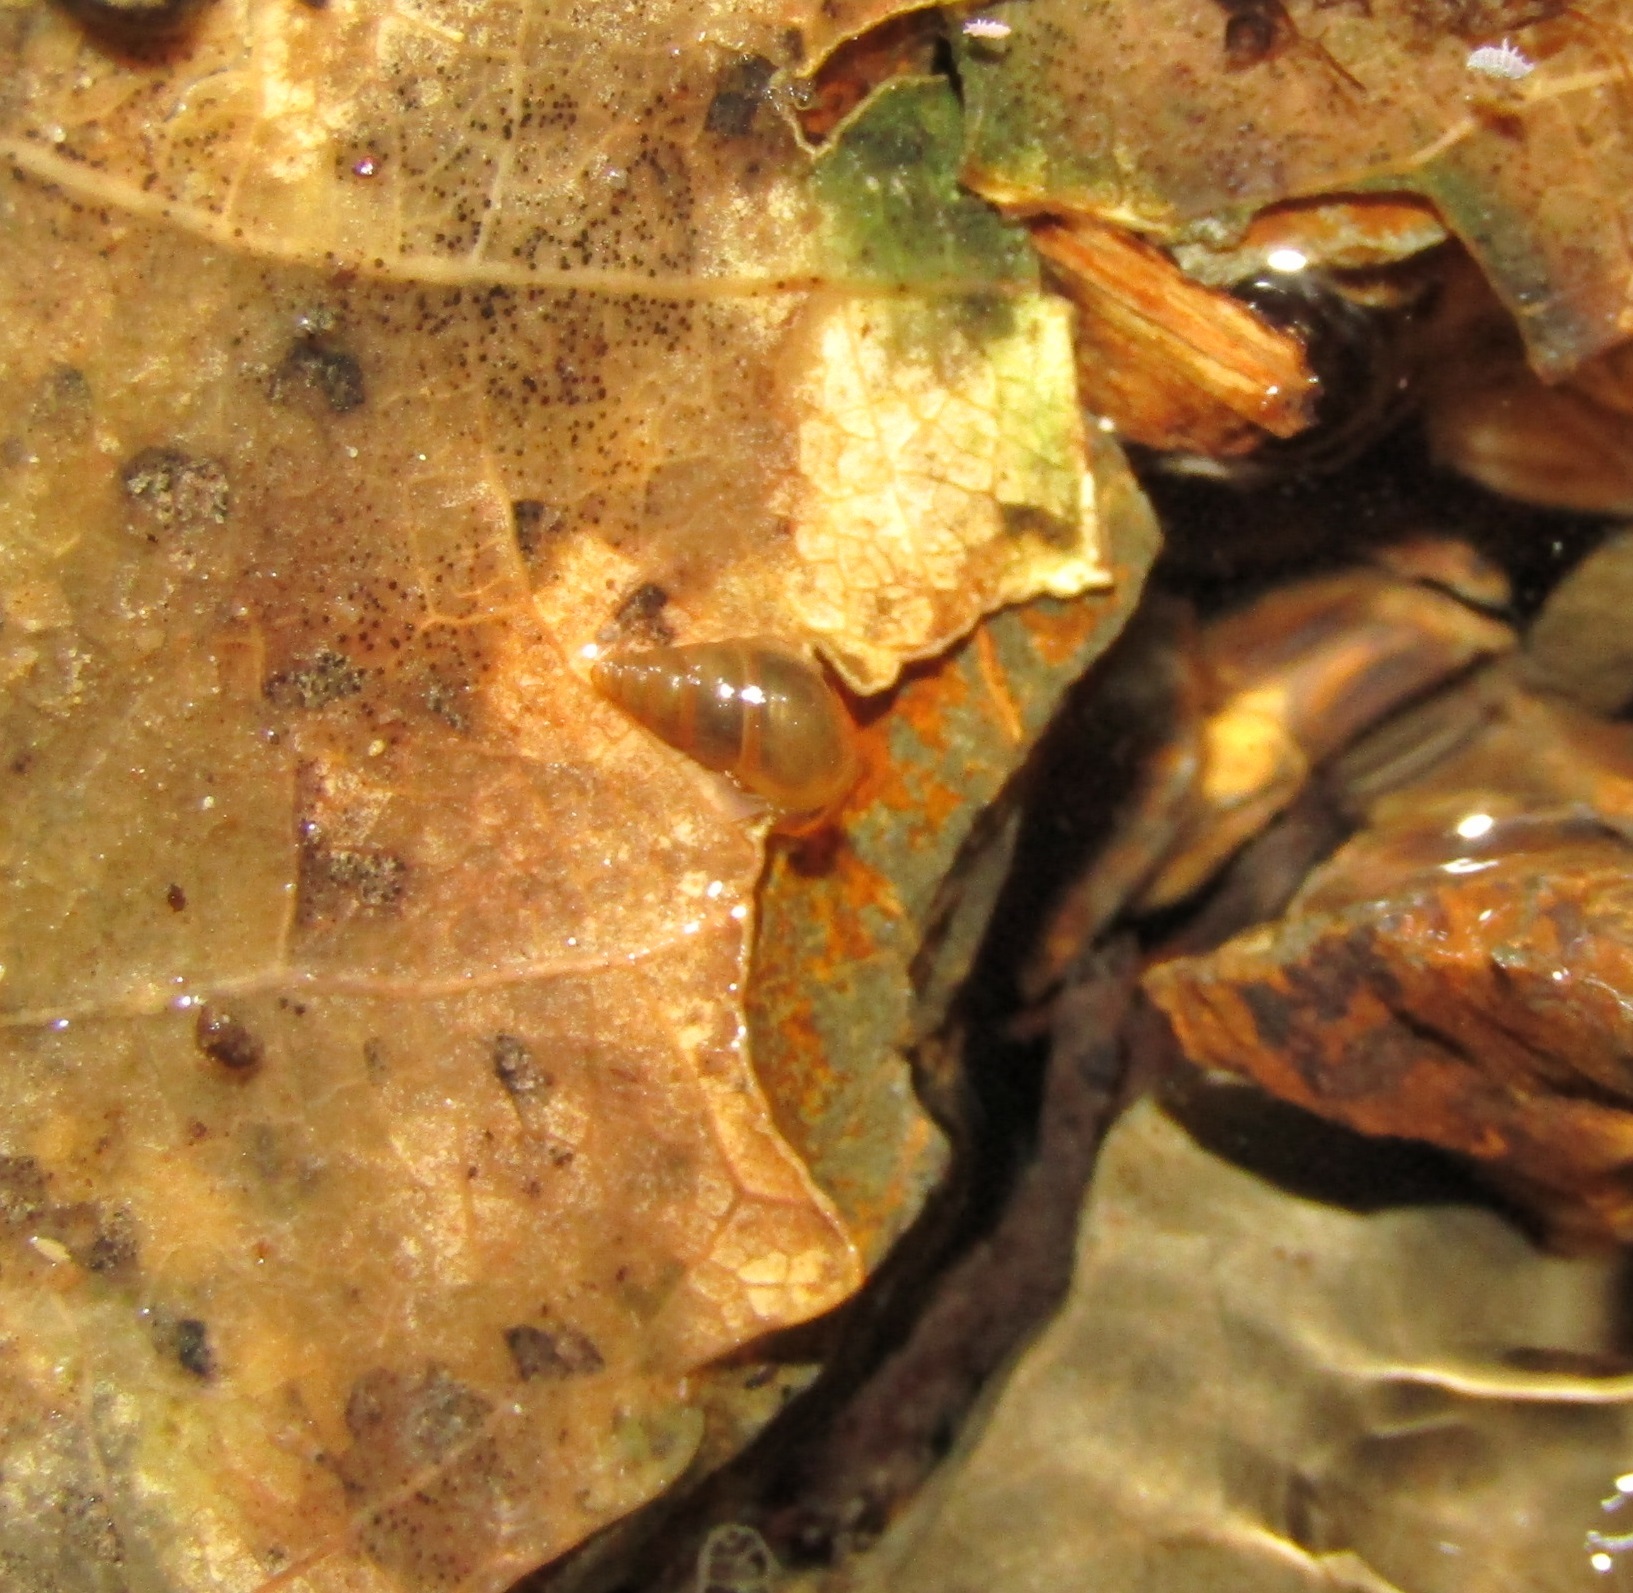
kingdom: Animalia
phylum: Mollusca
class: Gastropoda
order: Littorinimorpha
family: Tateidae
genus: Potamopyrgus
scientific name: Potamopyrgus antipodarum
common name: Jenkins' spire snail
